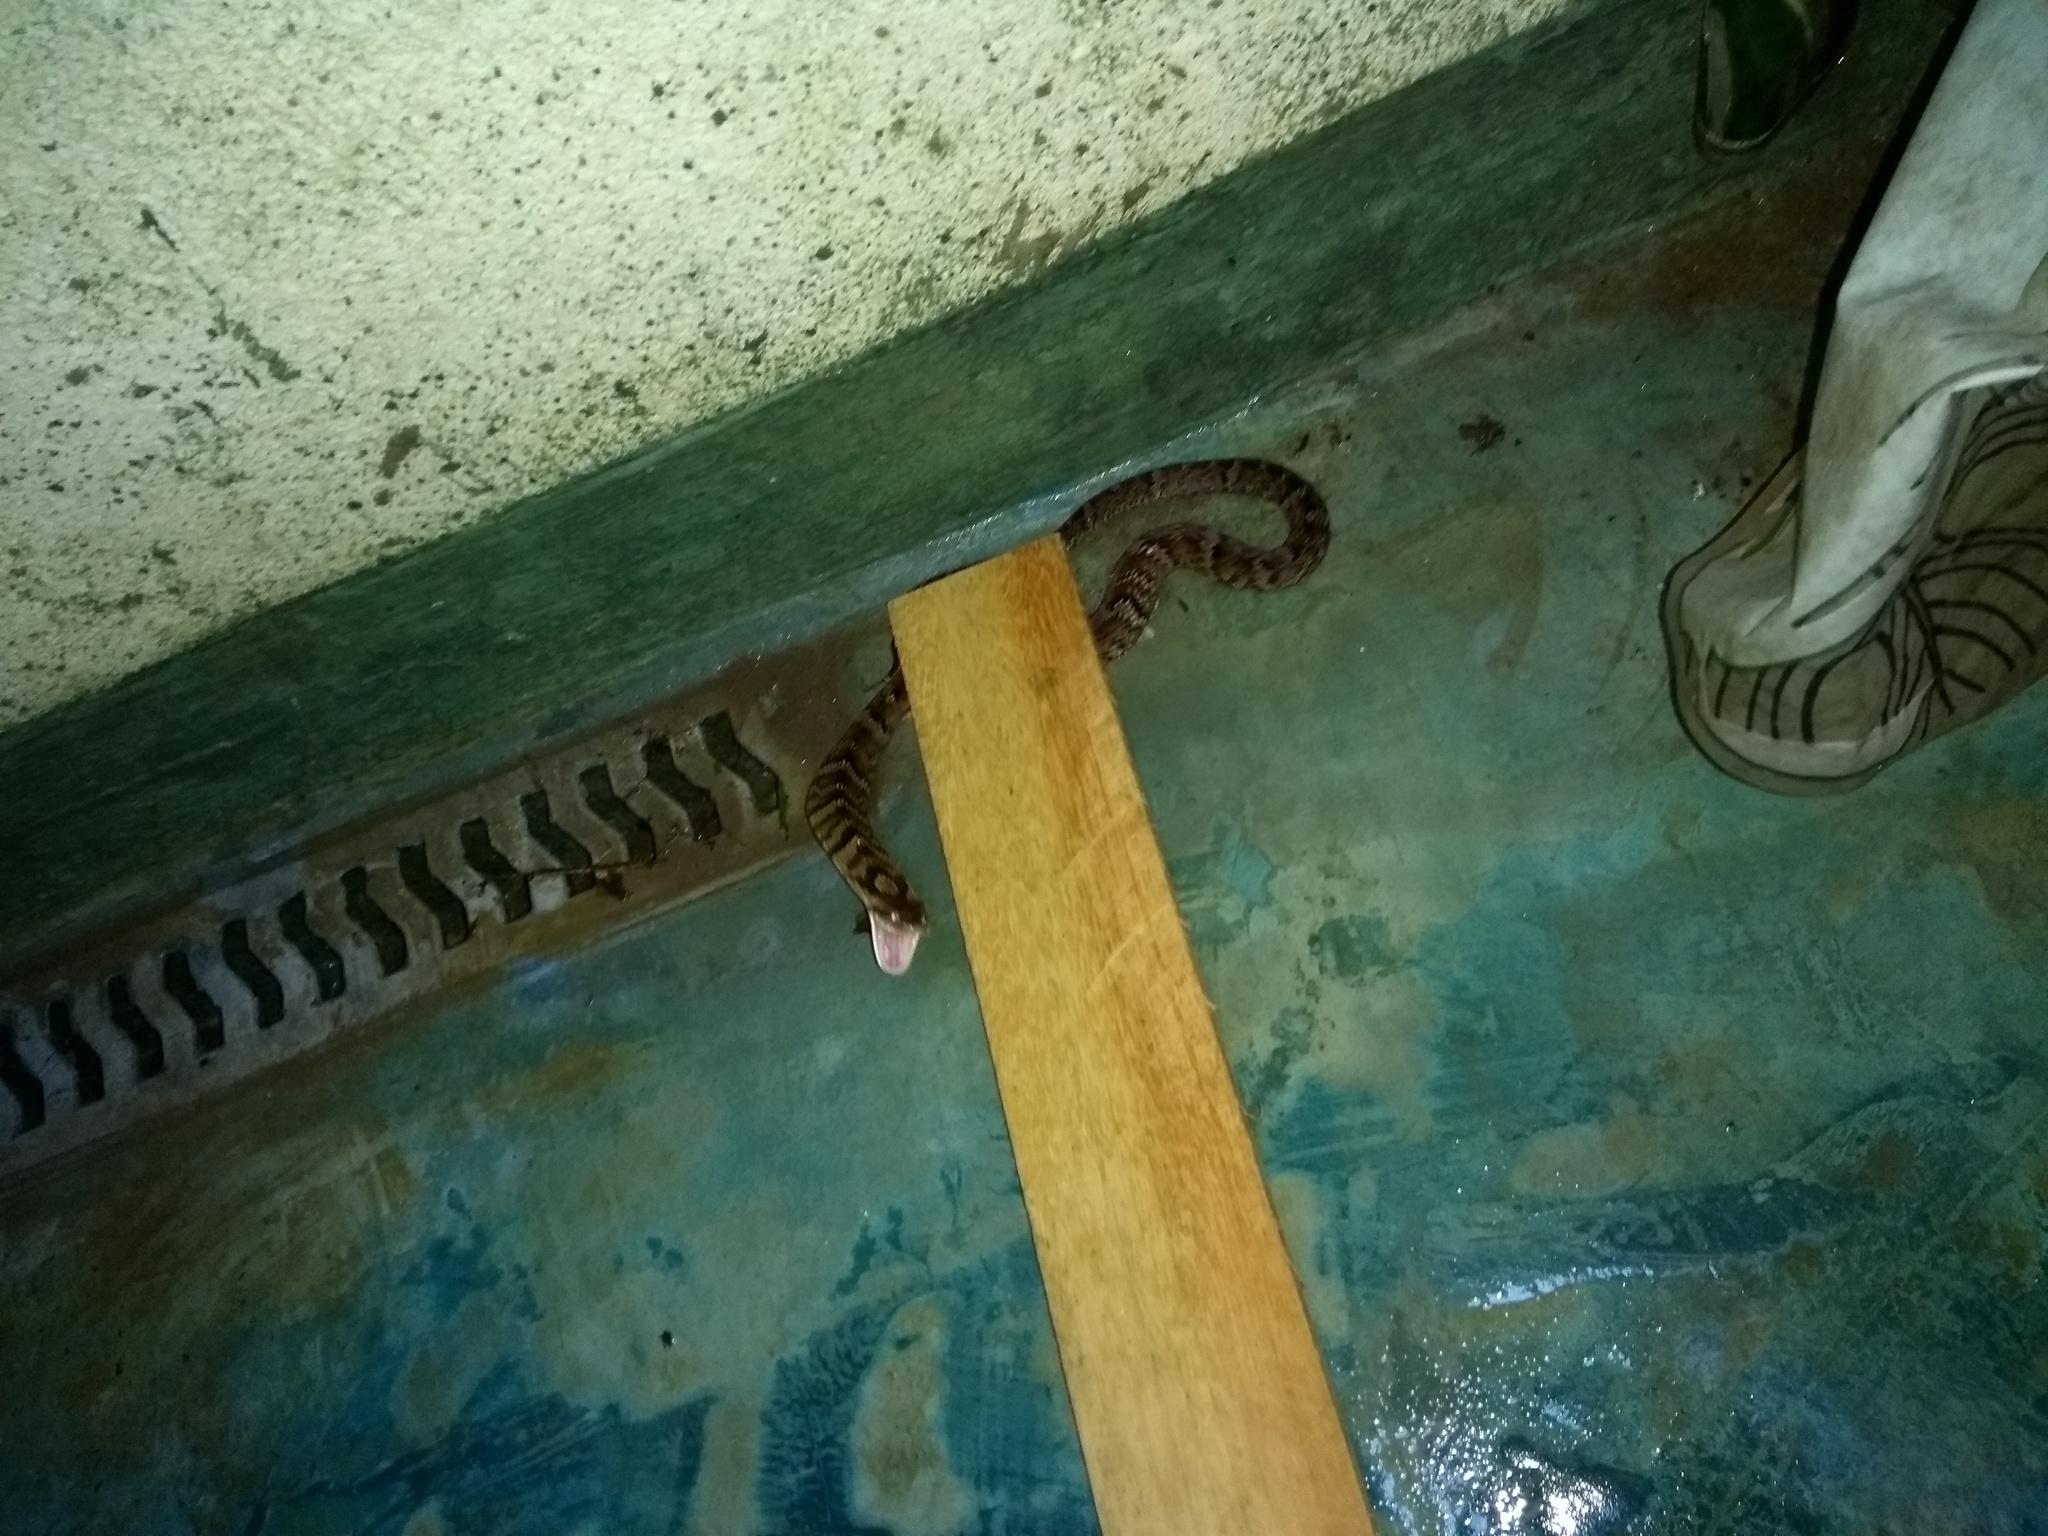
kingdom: Animalia
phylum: Chordata
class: Squamata
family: Colubridae
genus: Xenodon
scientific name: Xenodon neuwiedii
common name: Neuwied's false fer-de-lance
